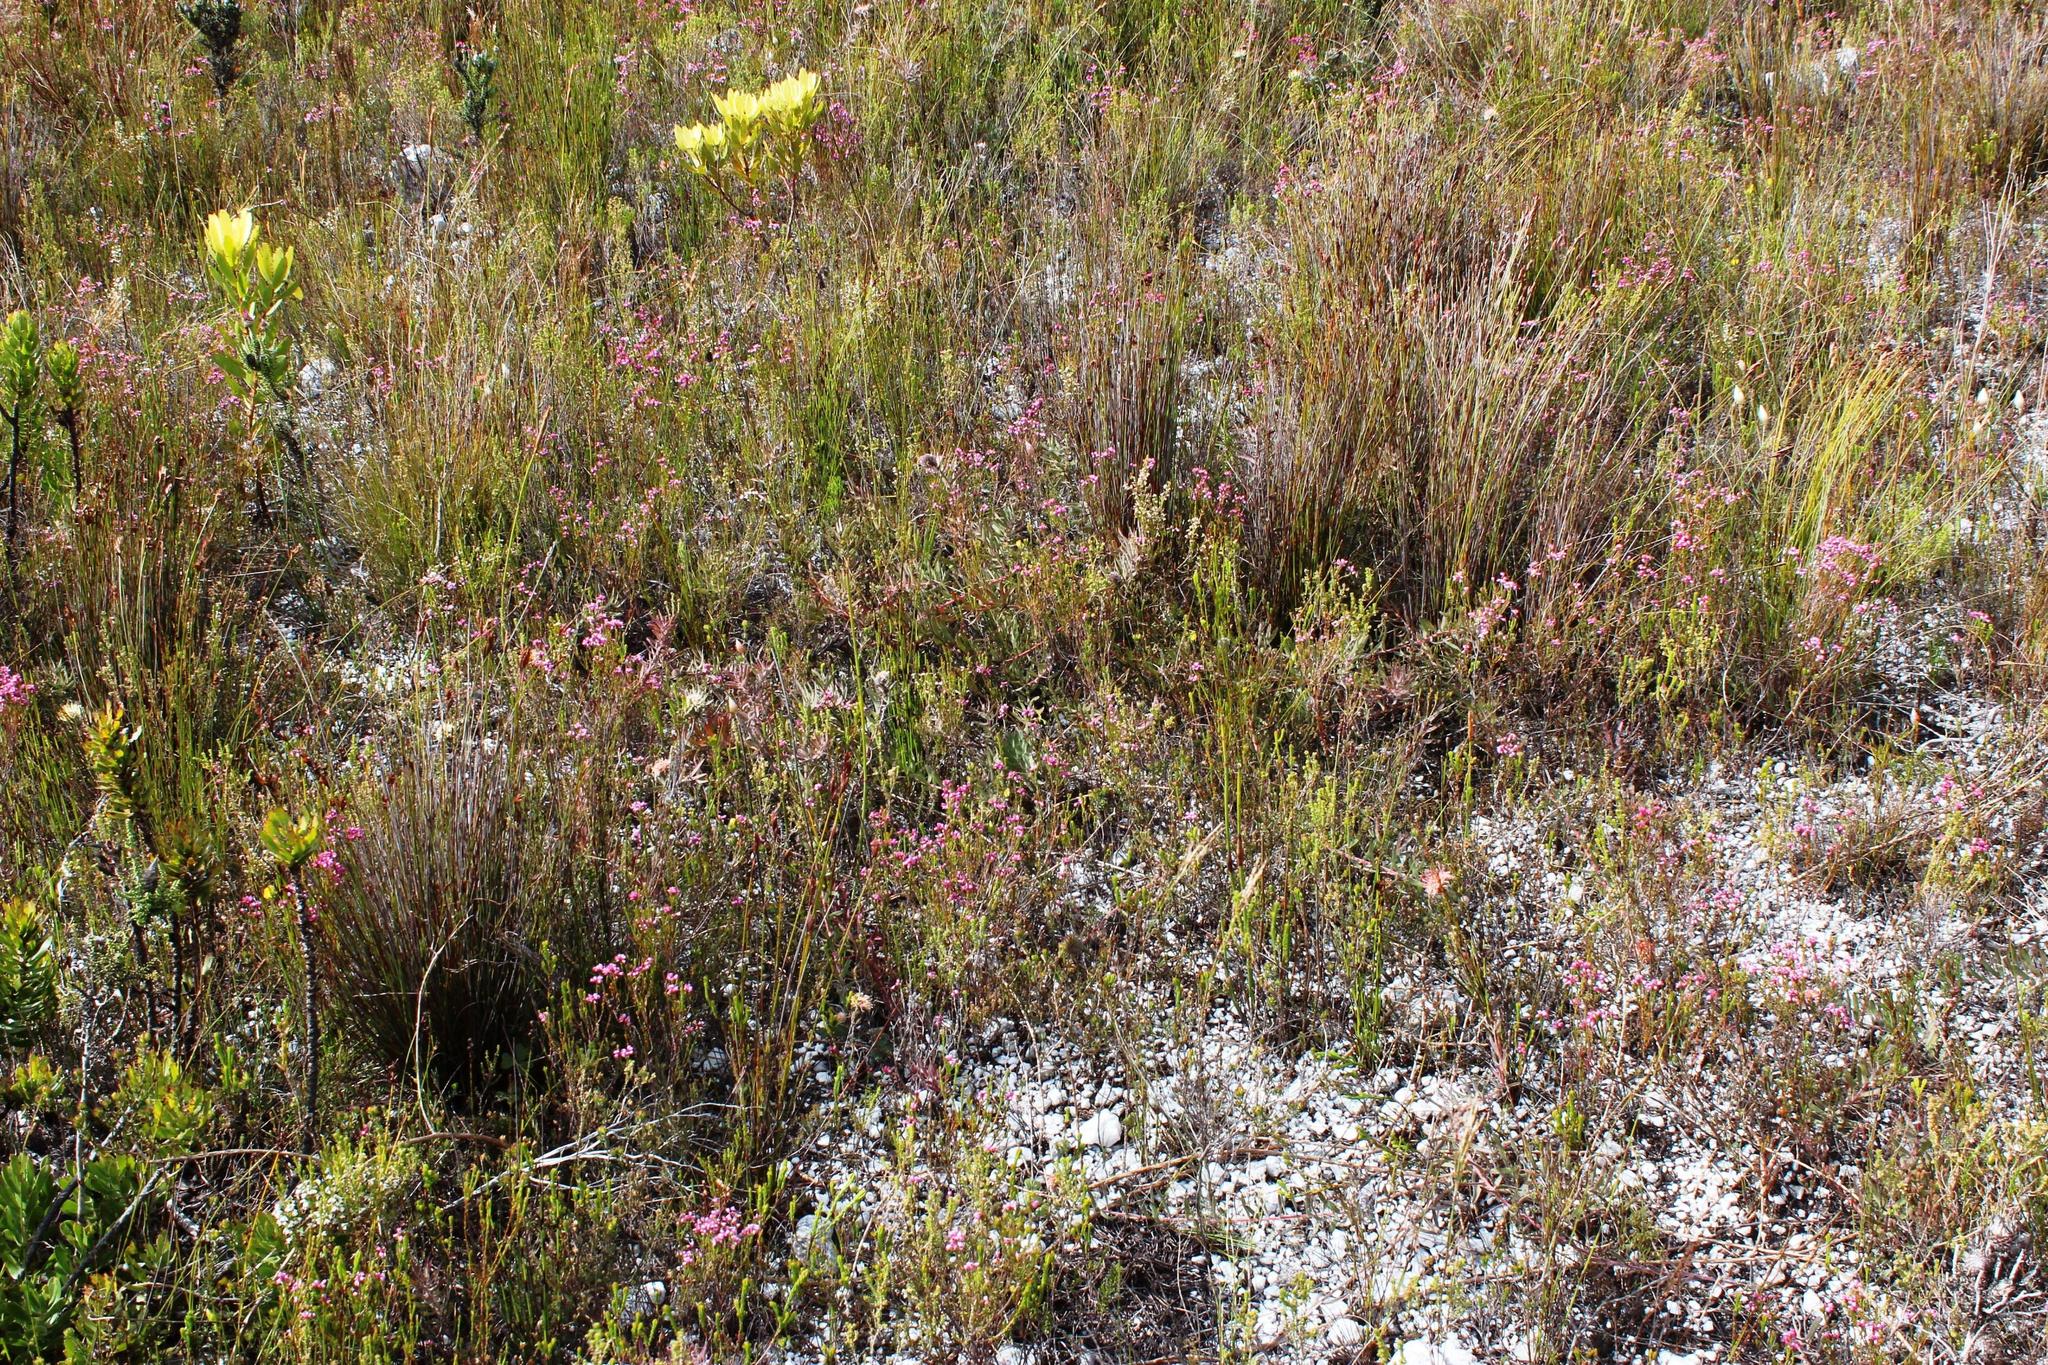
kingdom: Plantae
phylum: Tracheophyta
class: Magnoliopsida
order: Proteales
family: Proteaceae
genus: Leucospermum
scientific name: Leucospermum pedunculatum
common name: White-trailing pincushion
